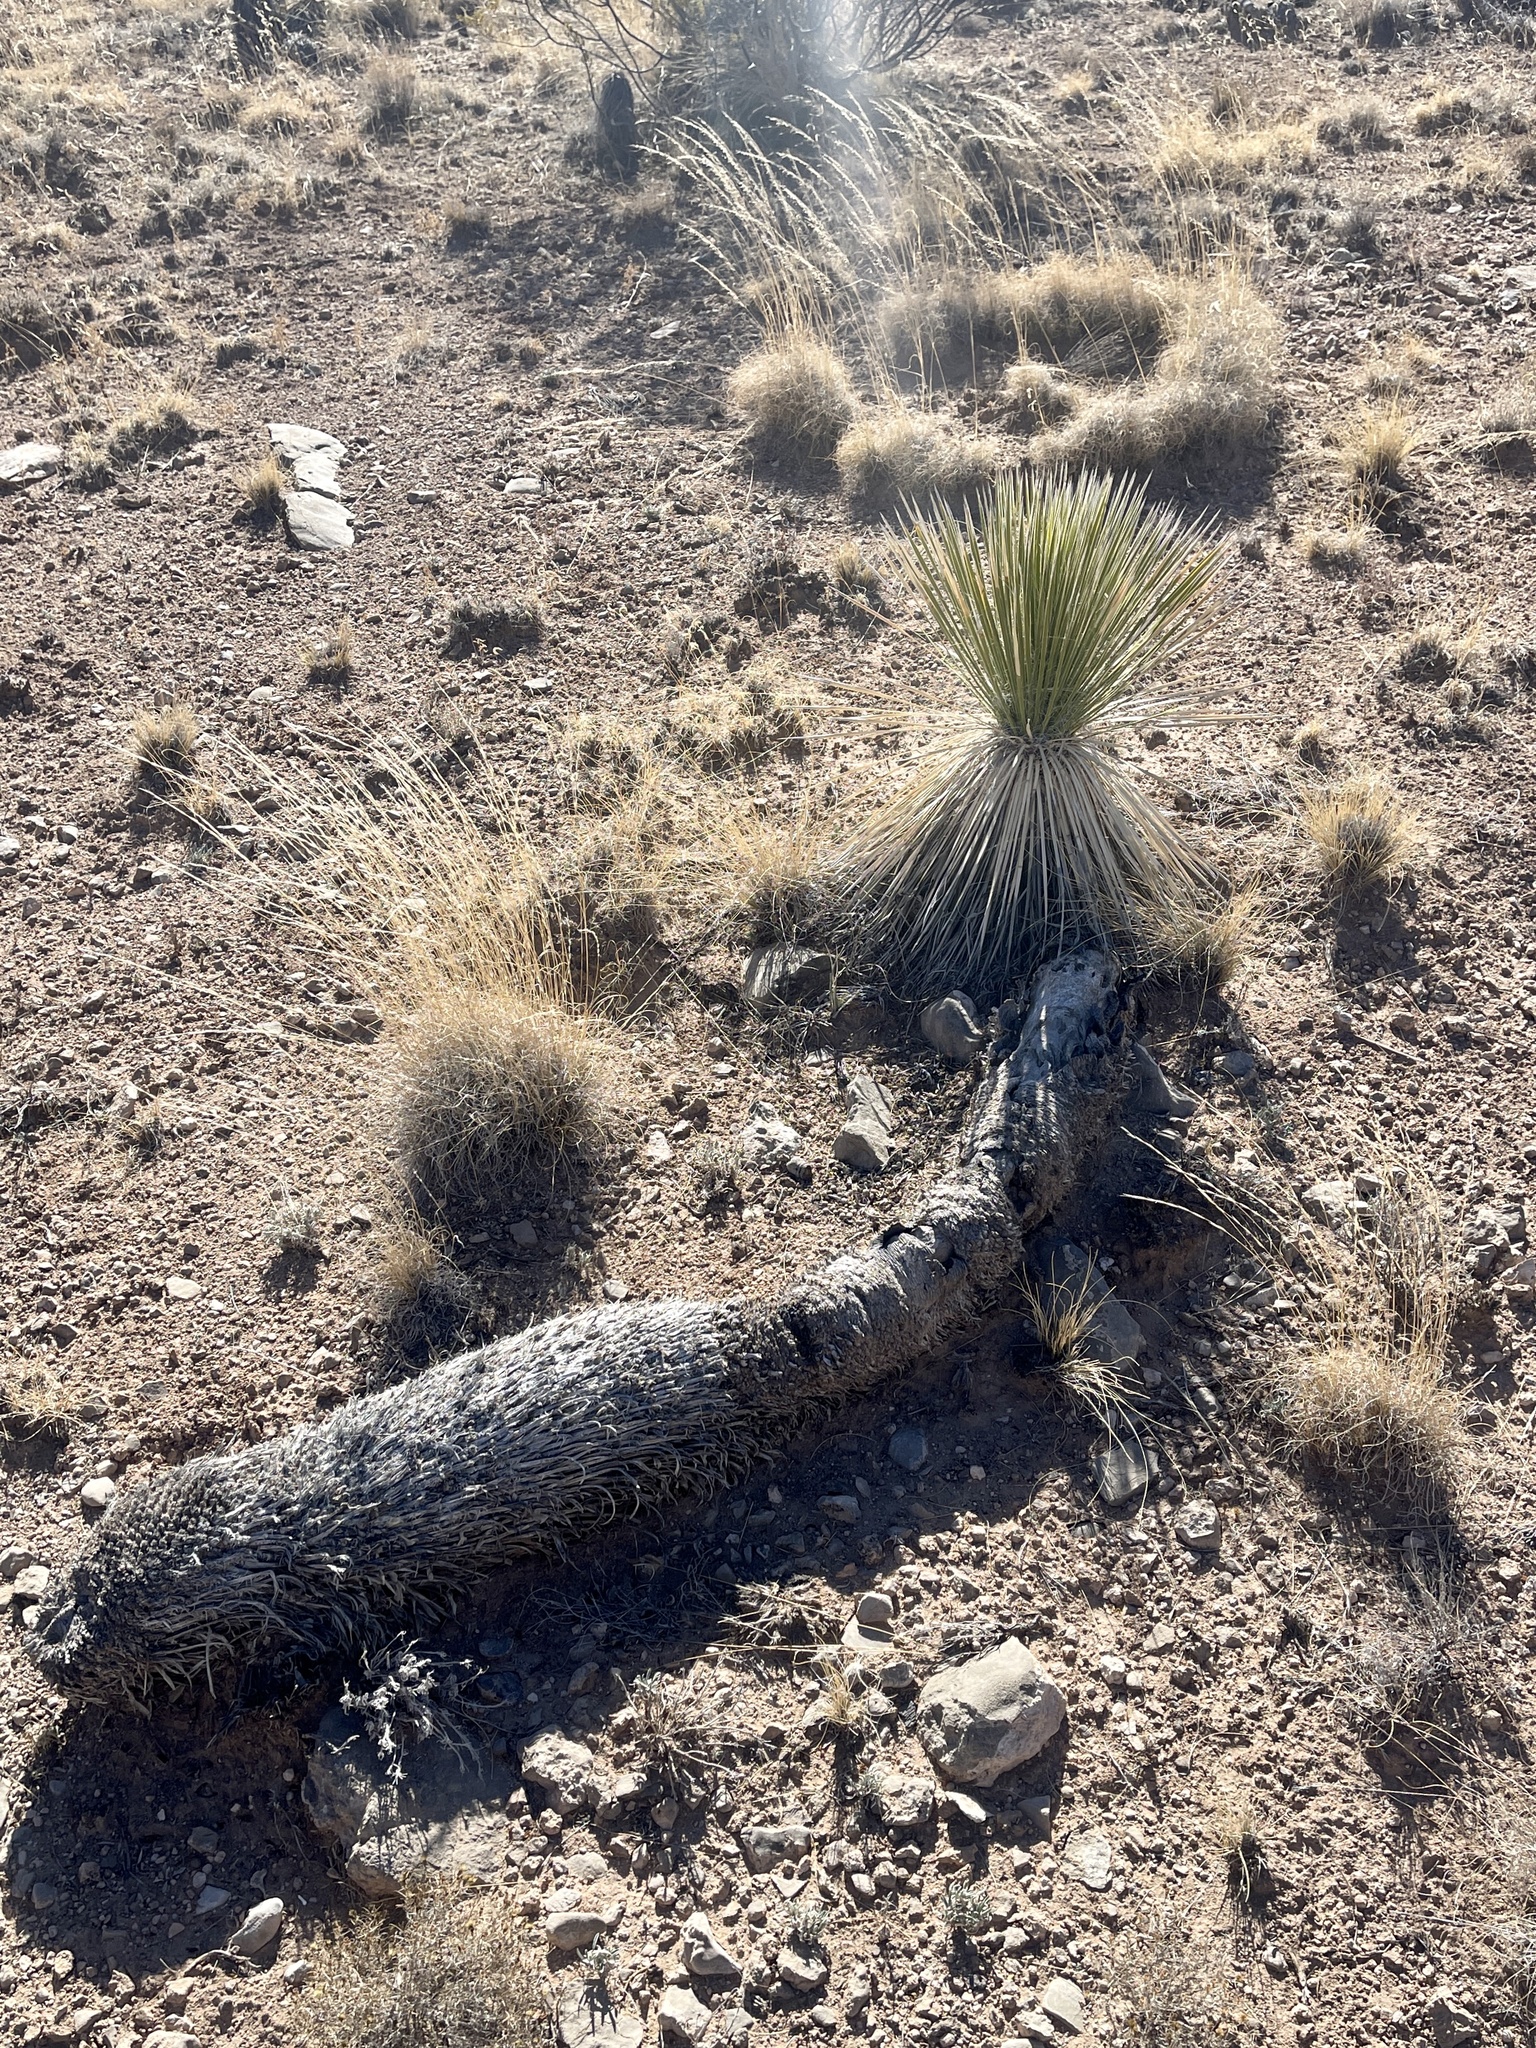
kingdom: Plantae
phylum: Tracheophyta
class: Liliopsida
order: Asparagales
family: Asparagaceae
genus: Yucca
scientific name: Yucca elata
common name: Palmella
